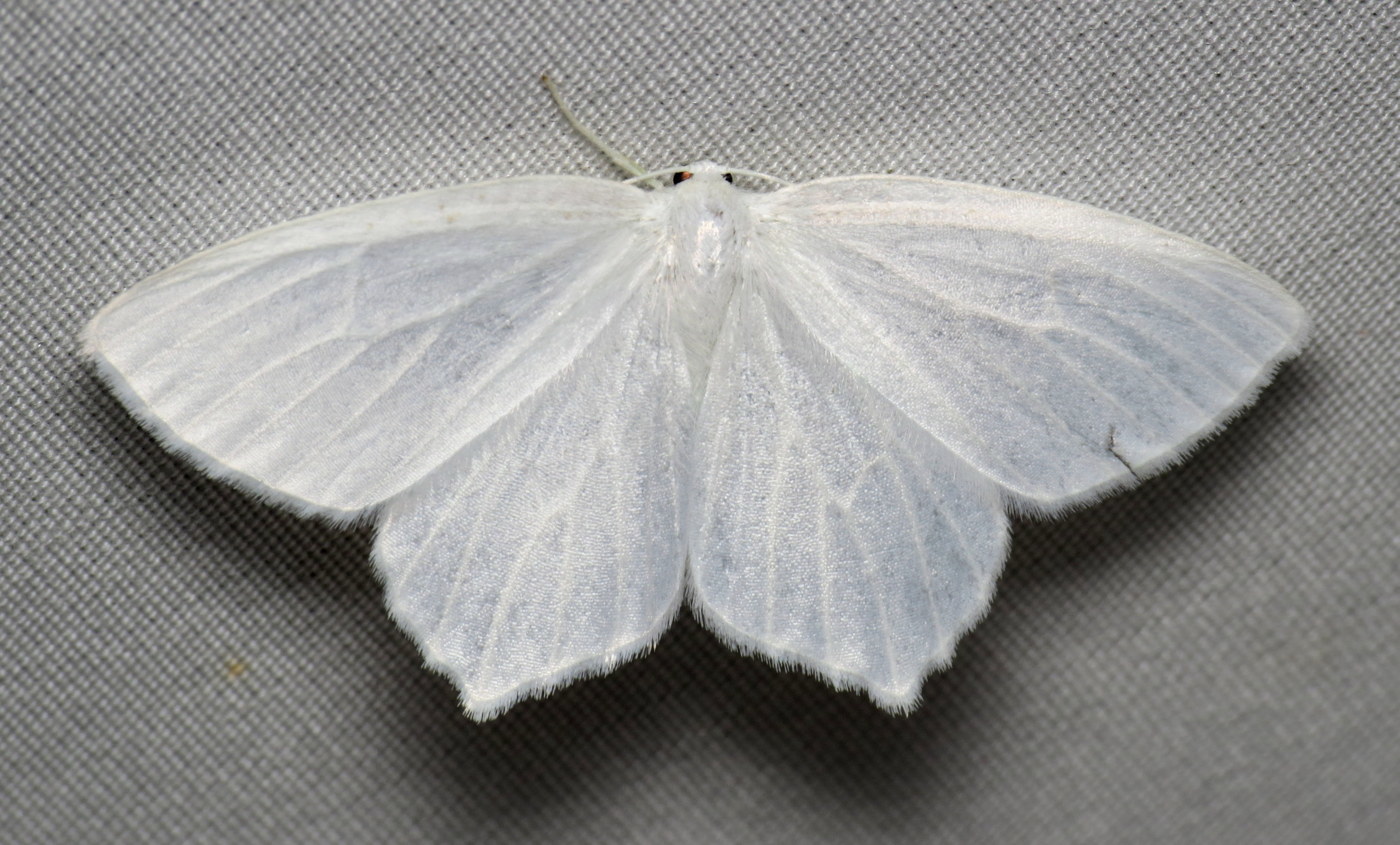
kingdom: Animalia
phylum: Arthropoda
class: Insecta
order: Lepidoptera
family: Geometridae
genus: Eugonobapta
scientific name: Eugonobapta nivosaria
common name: Snowy geometer
